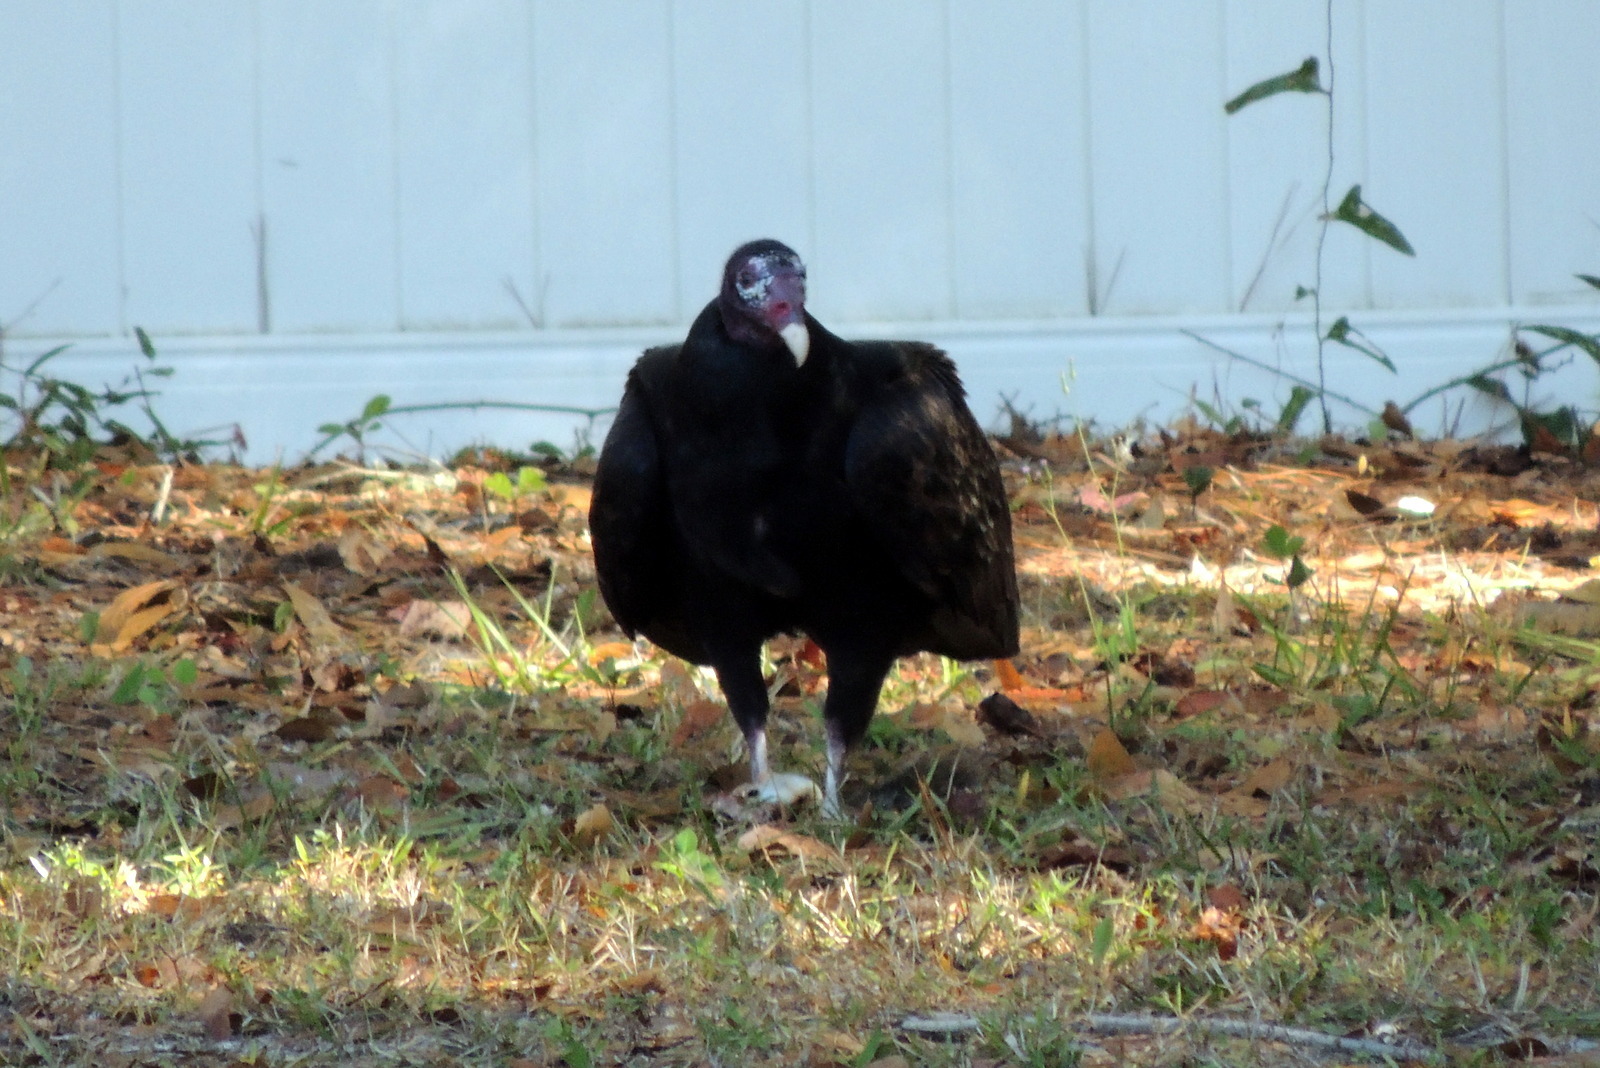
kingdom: Animalia
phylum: Chordata
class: Aves
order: Accipitriformes
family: Cathartidae
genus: Cathartes
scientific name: Cathartes aura
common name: Turkey vulture
